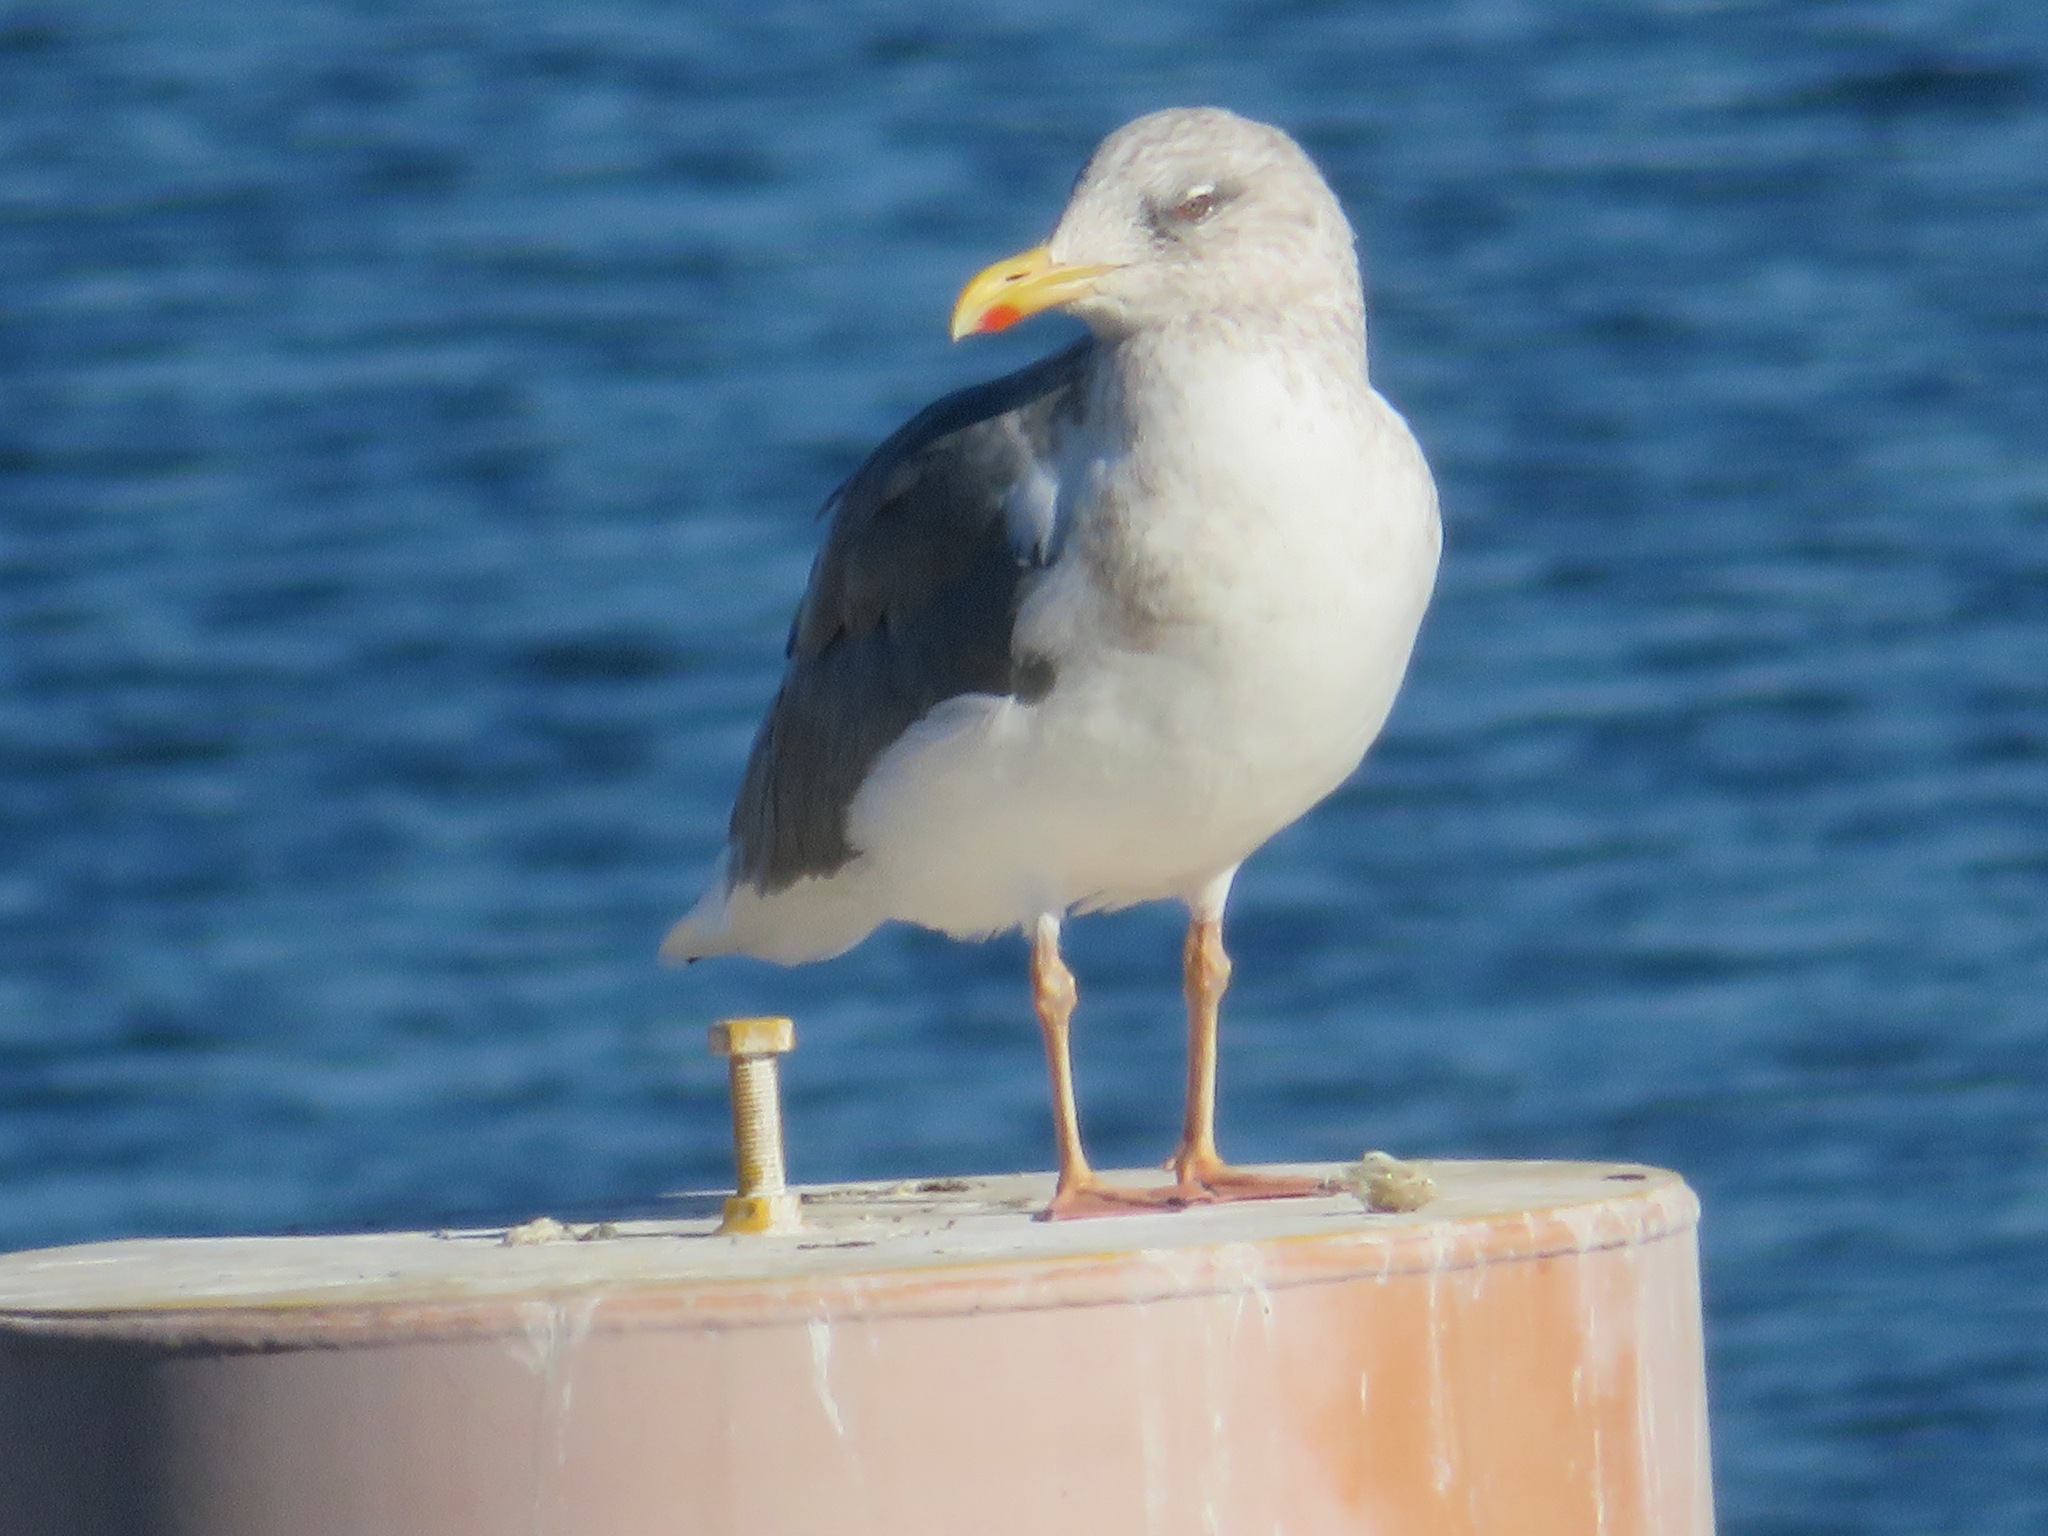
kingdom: Animalia
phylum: Chordata
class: Aves
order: Charadriiformes
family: Laridae
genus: Larus
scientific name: Larus vegae
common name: Vega gull
